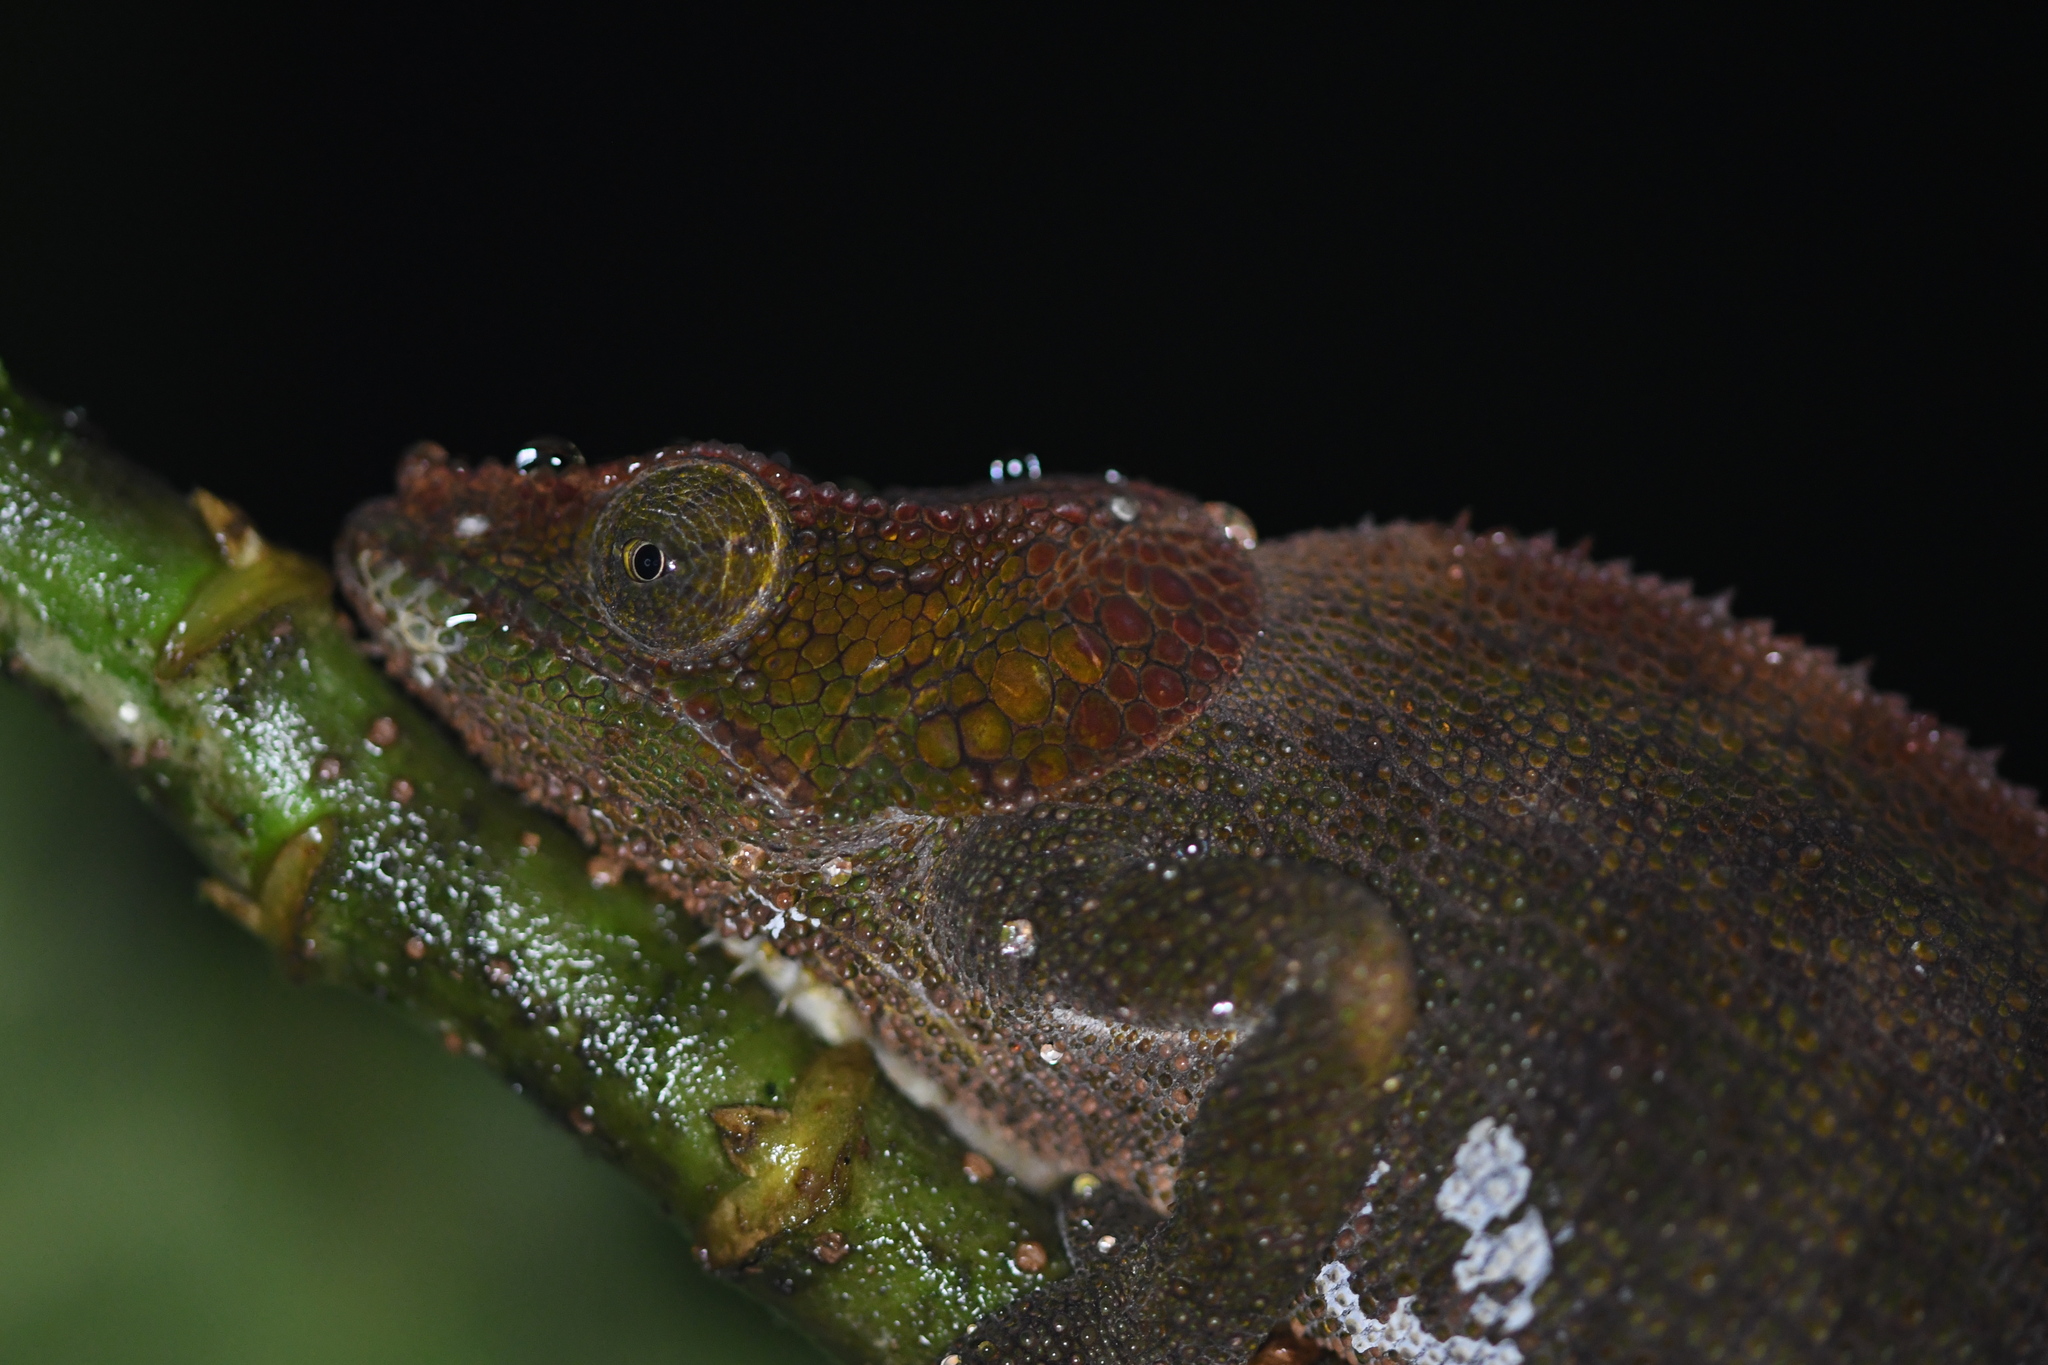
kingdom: Animalia
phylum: Chordata
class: Squamata
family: Chamaeleonidae
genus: Calumma
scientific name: Calumma crypticum
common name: Cryptic chameleon
